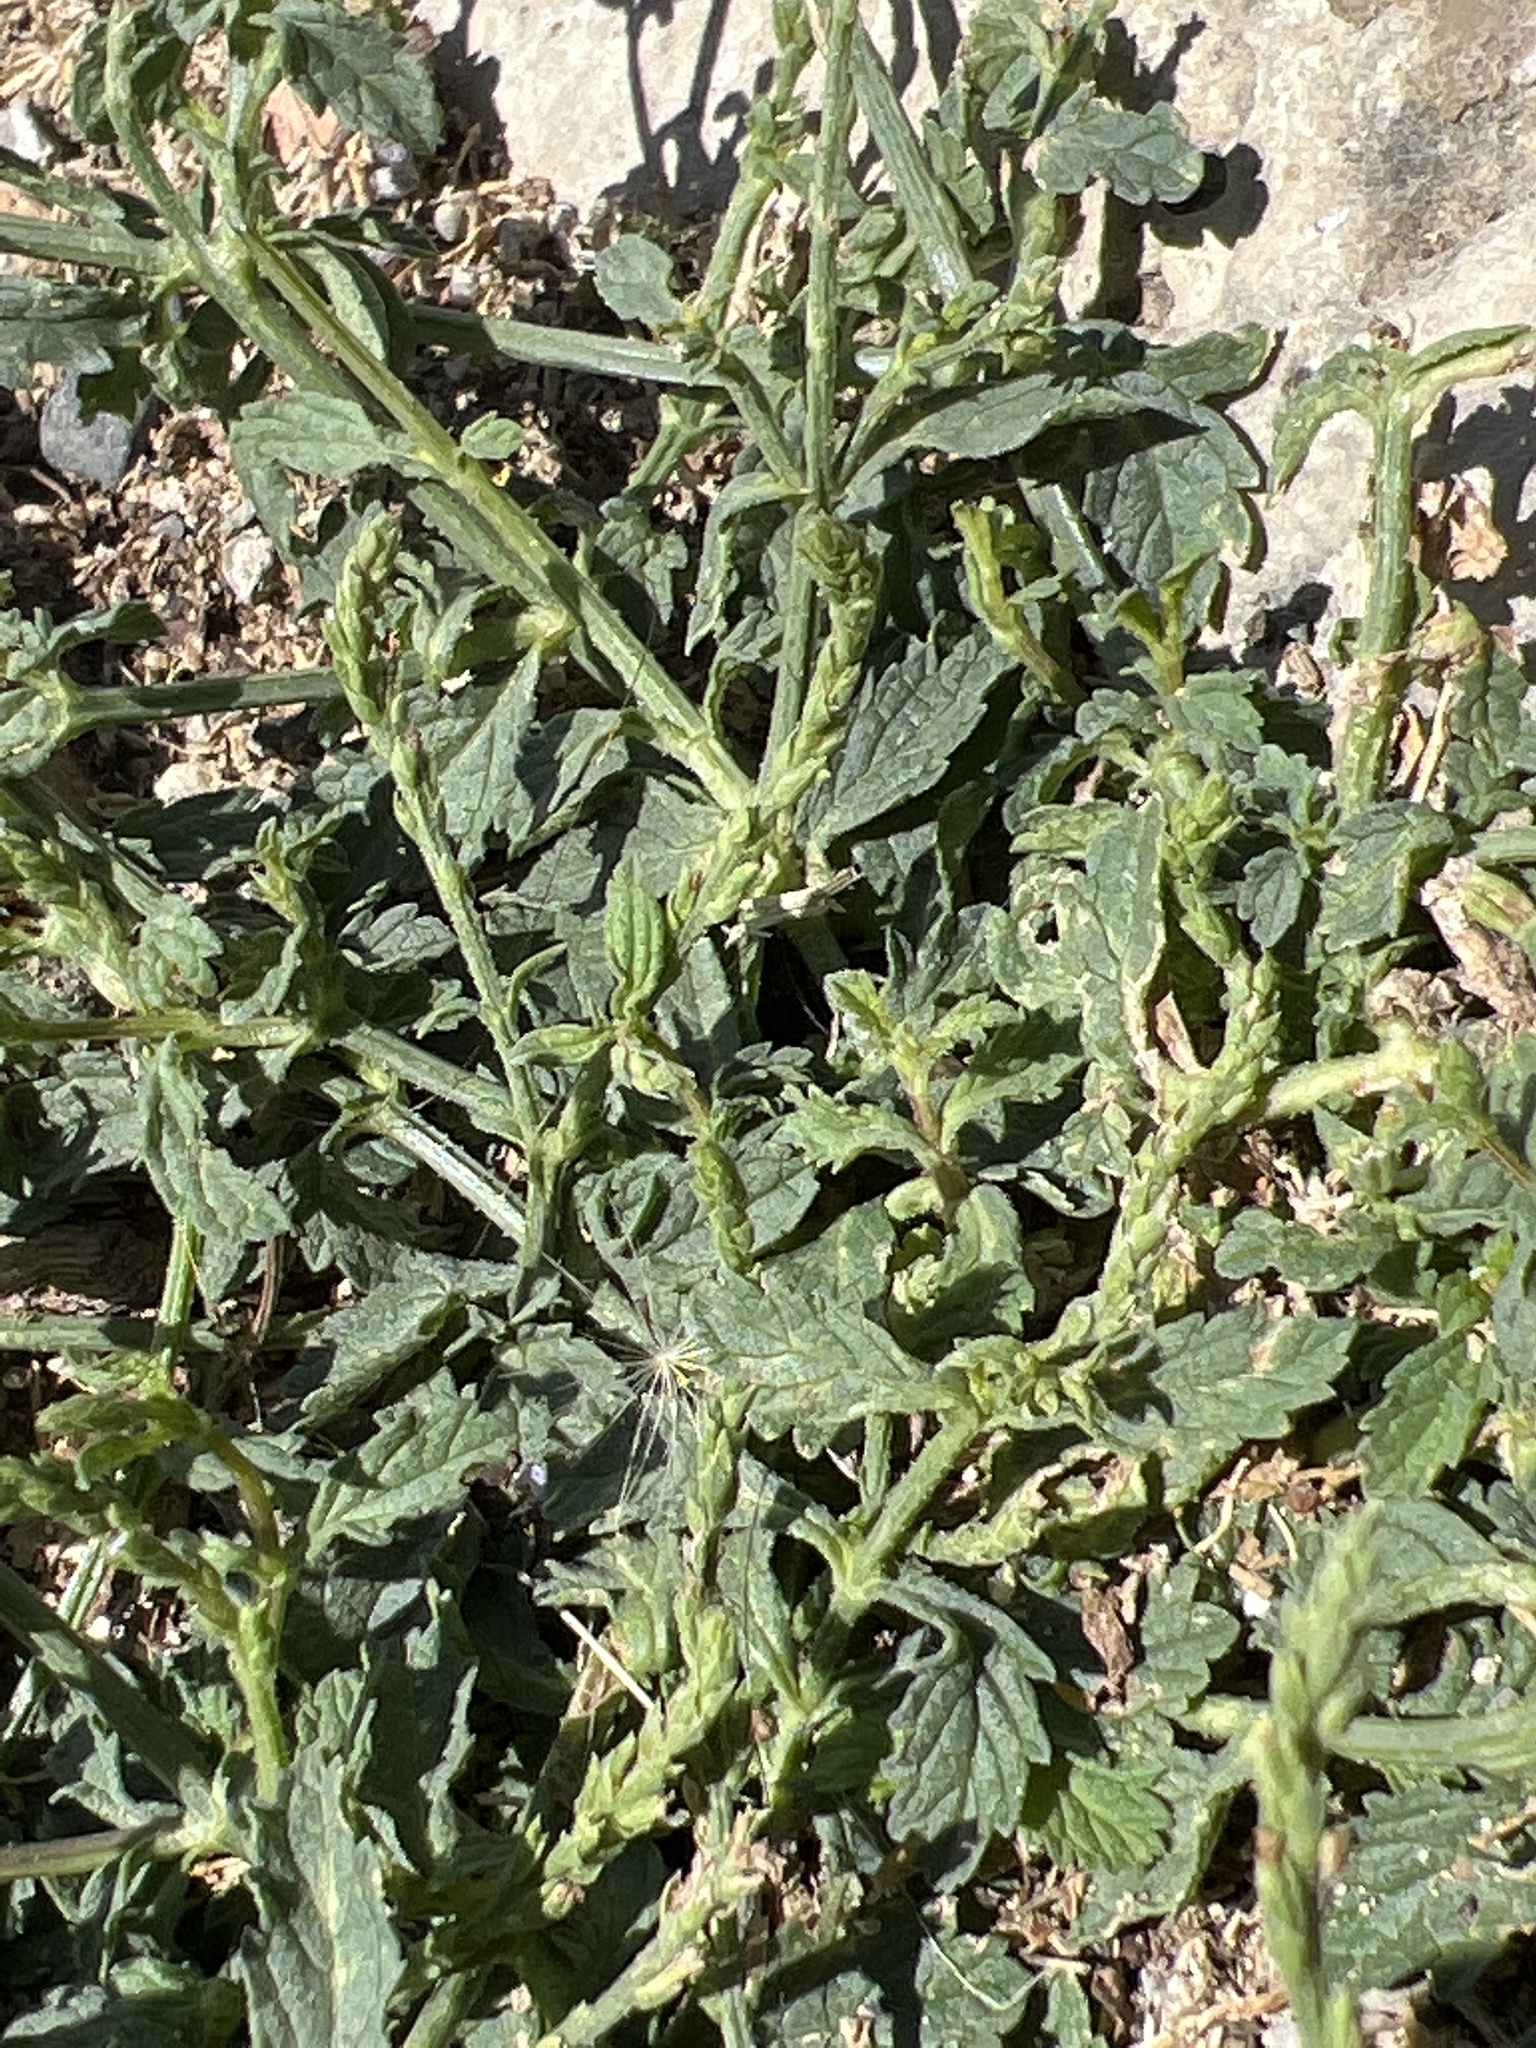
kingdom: Plantae
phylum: Tracheophyta
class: Magnoliopsida
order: Lamiales
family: Verbenaceae
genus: Verbena
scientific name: Verbena officinalis
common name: Vervain
